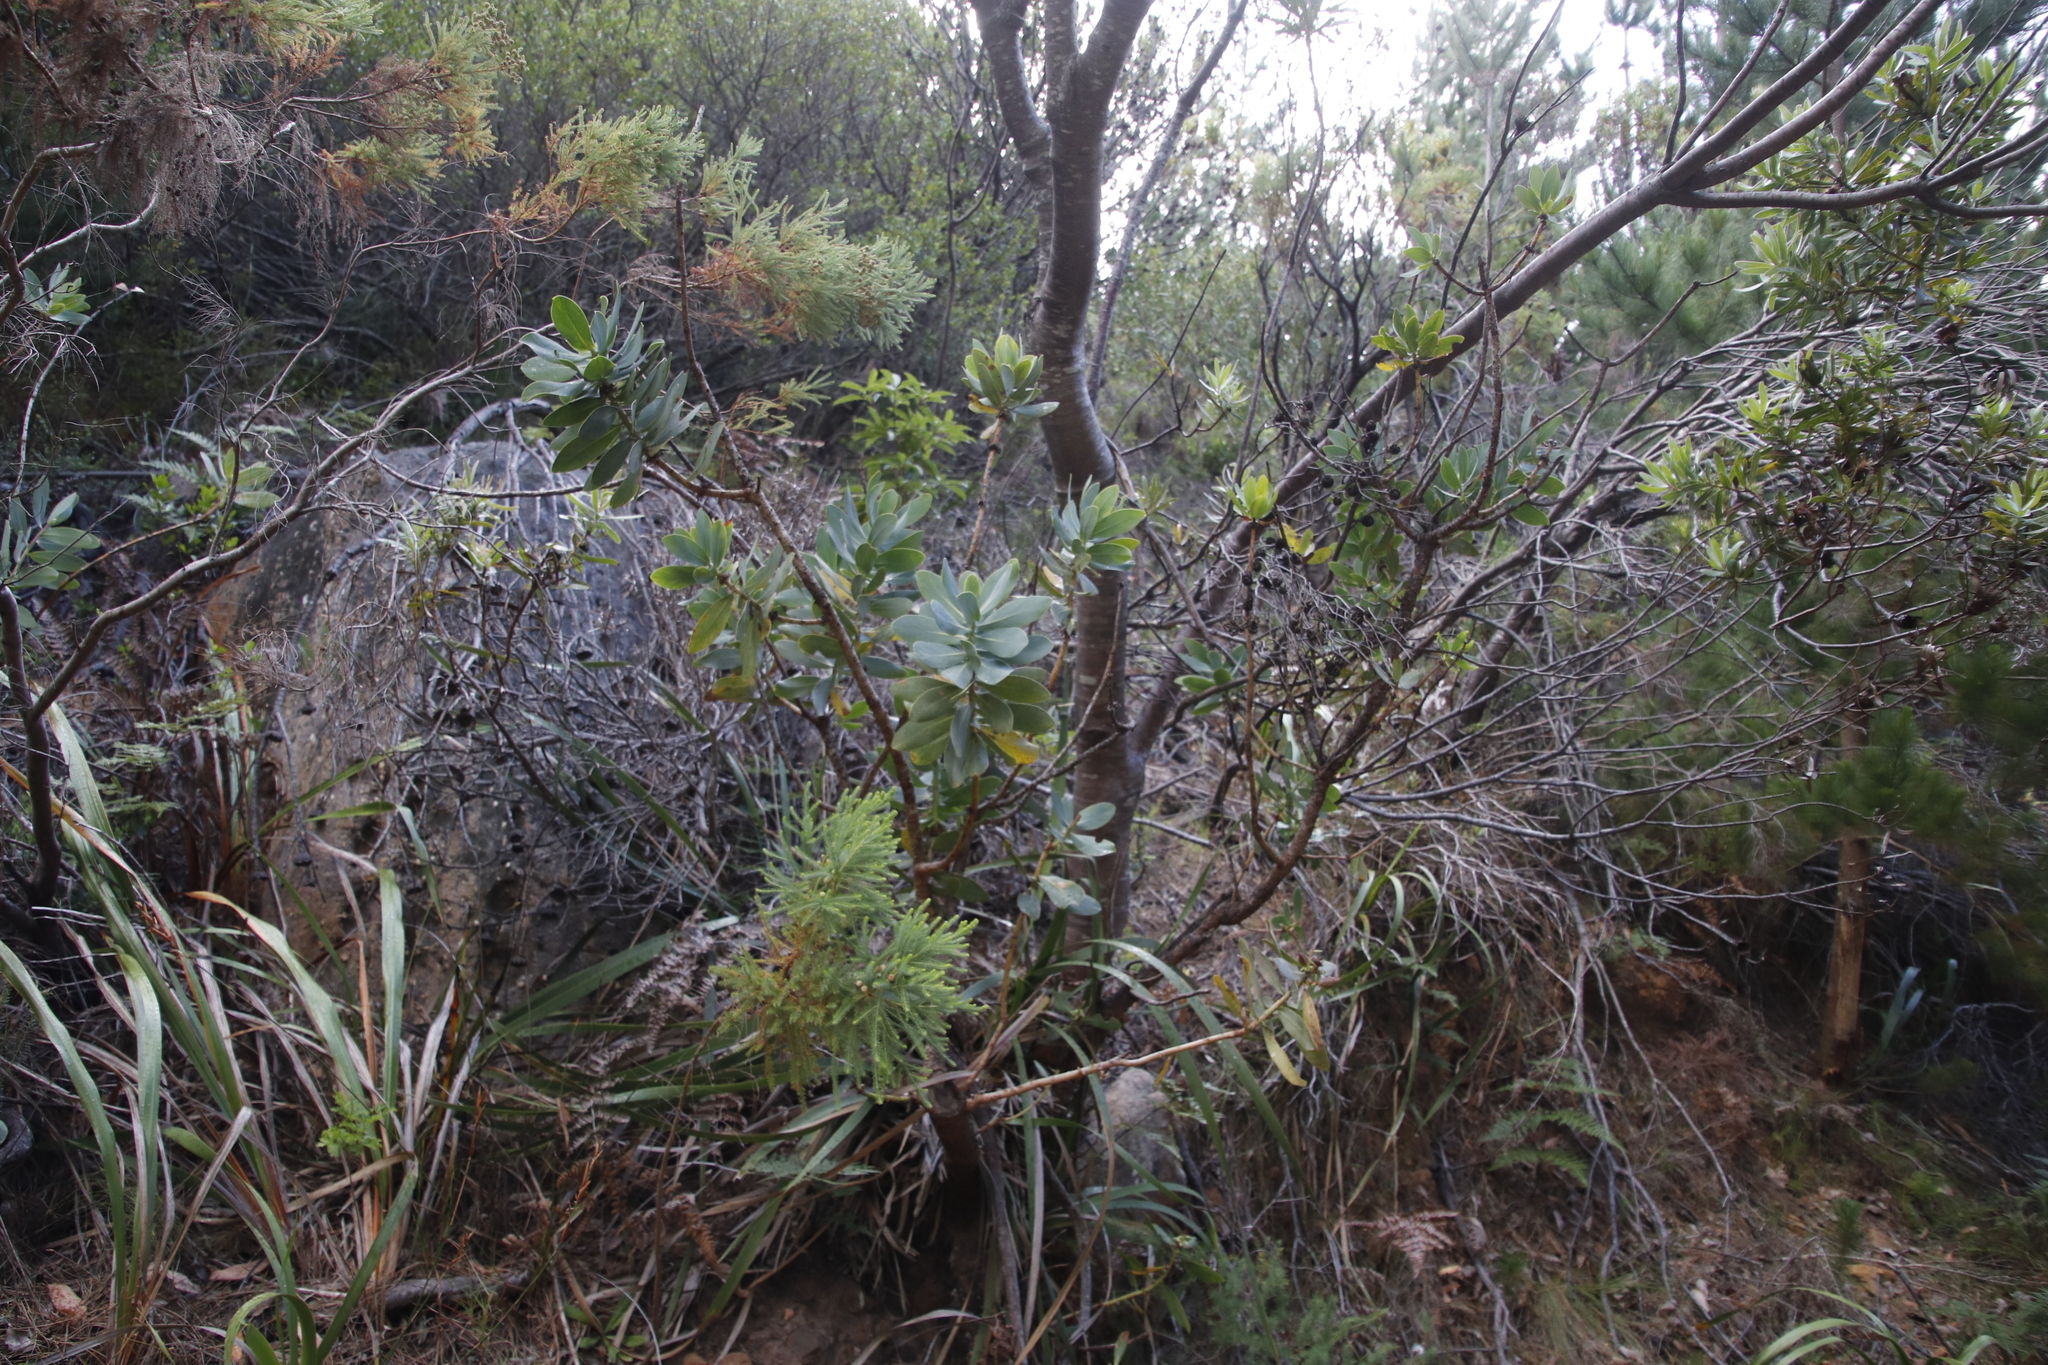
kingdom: Plantae
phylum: Tracheophyta
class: Magnoliopsida
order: Proteales
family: Proteaceae
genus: Protea
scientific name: Protea nitida
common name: Tree protea
